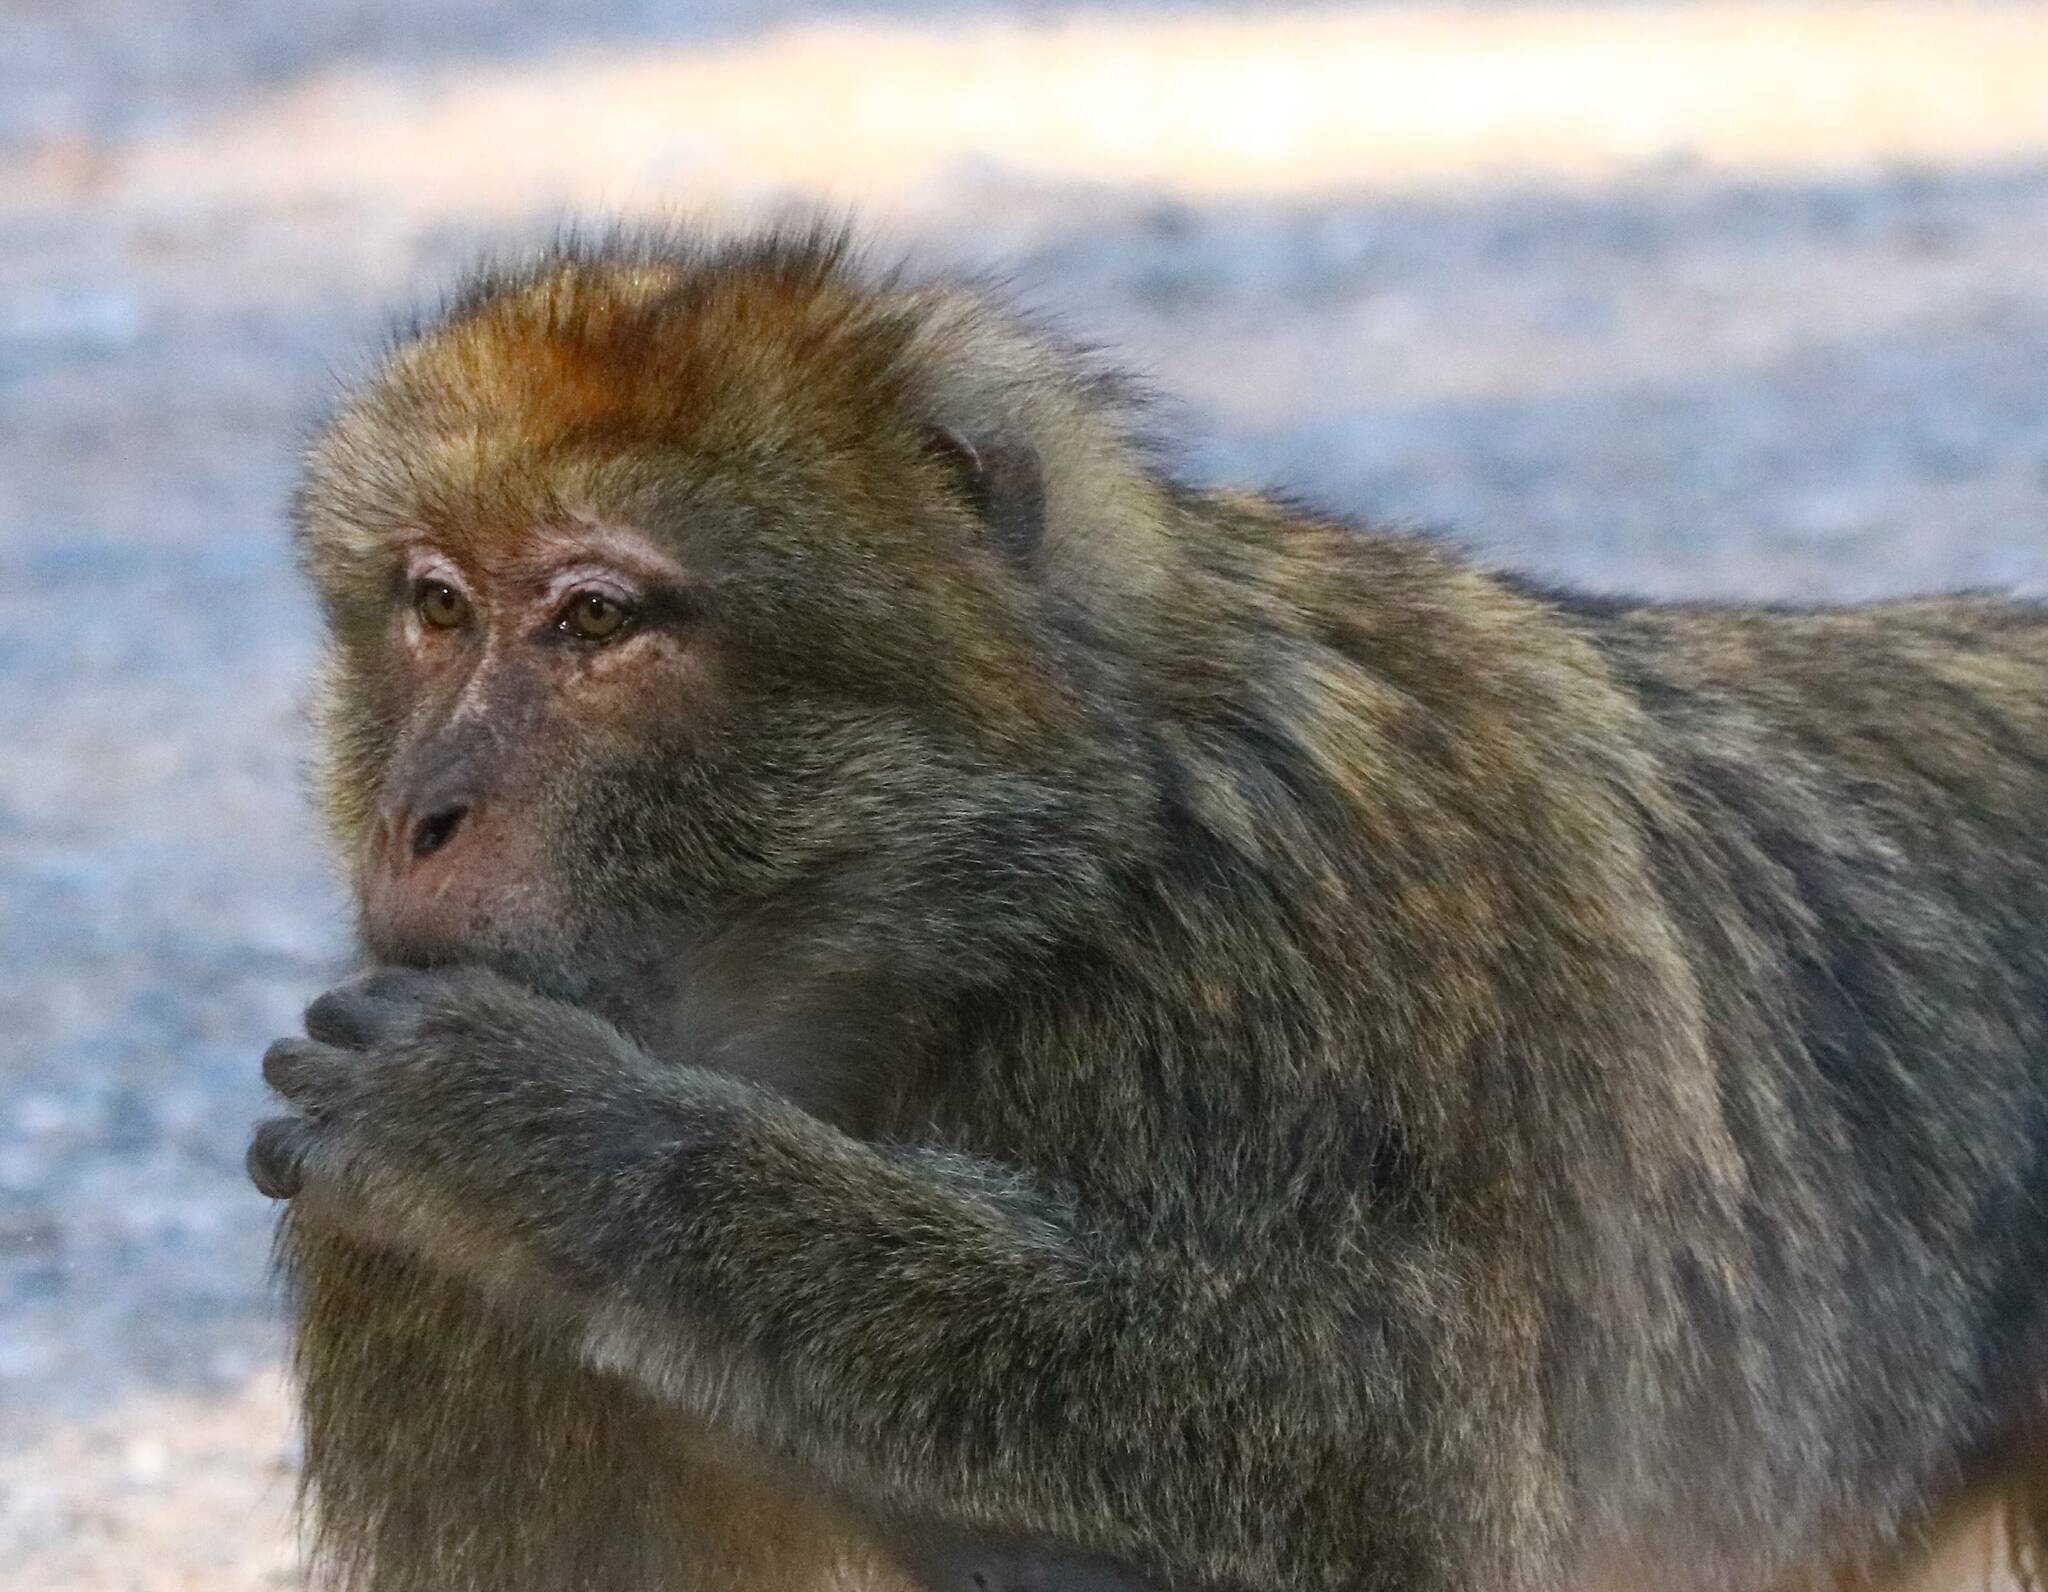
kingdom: Animalia
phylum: Chordata
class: Mammalia
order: Primates
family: Cercopithecidae
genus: Macaca
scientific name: Macaca sylvanus
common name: Barbary macaque
